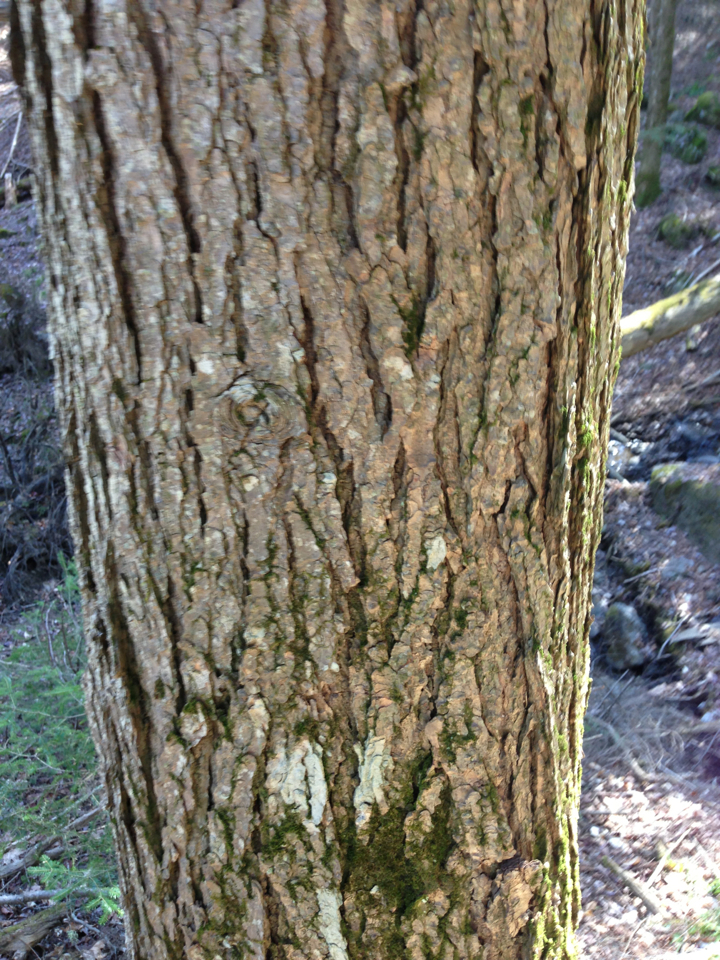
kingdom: Plantae
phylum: Tracheophyta
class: Pinopsida
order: Pinales
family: Pinaceae
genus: Tsuga
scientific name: Tsuga canadensis
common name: Eastern hemlock
